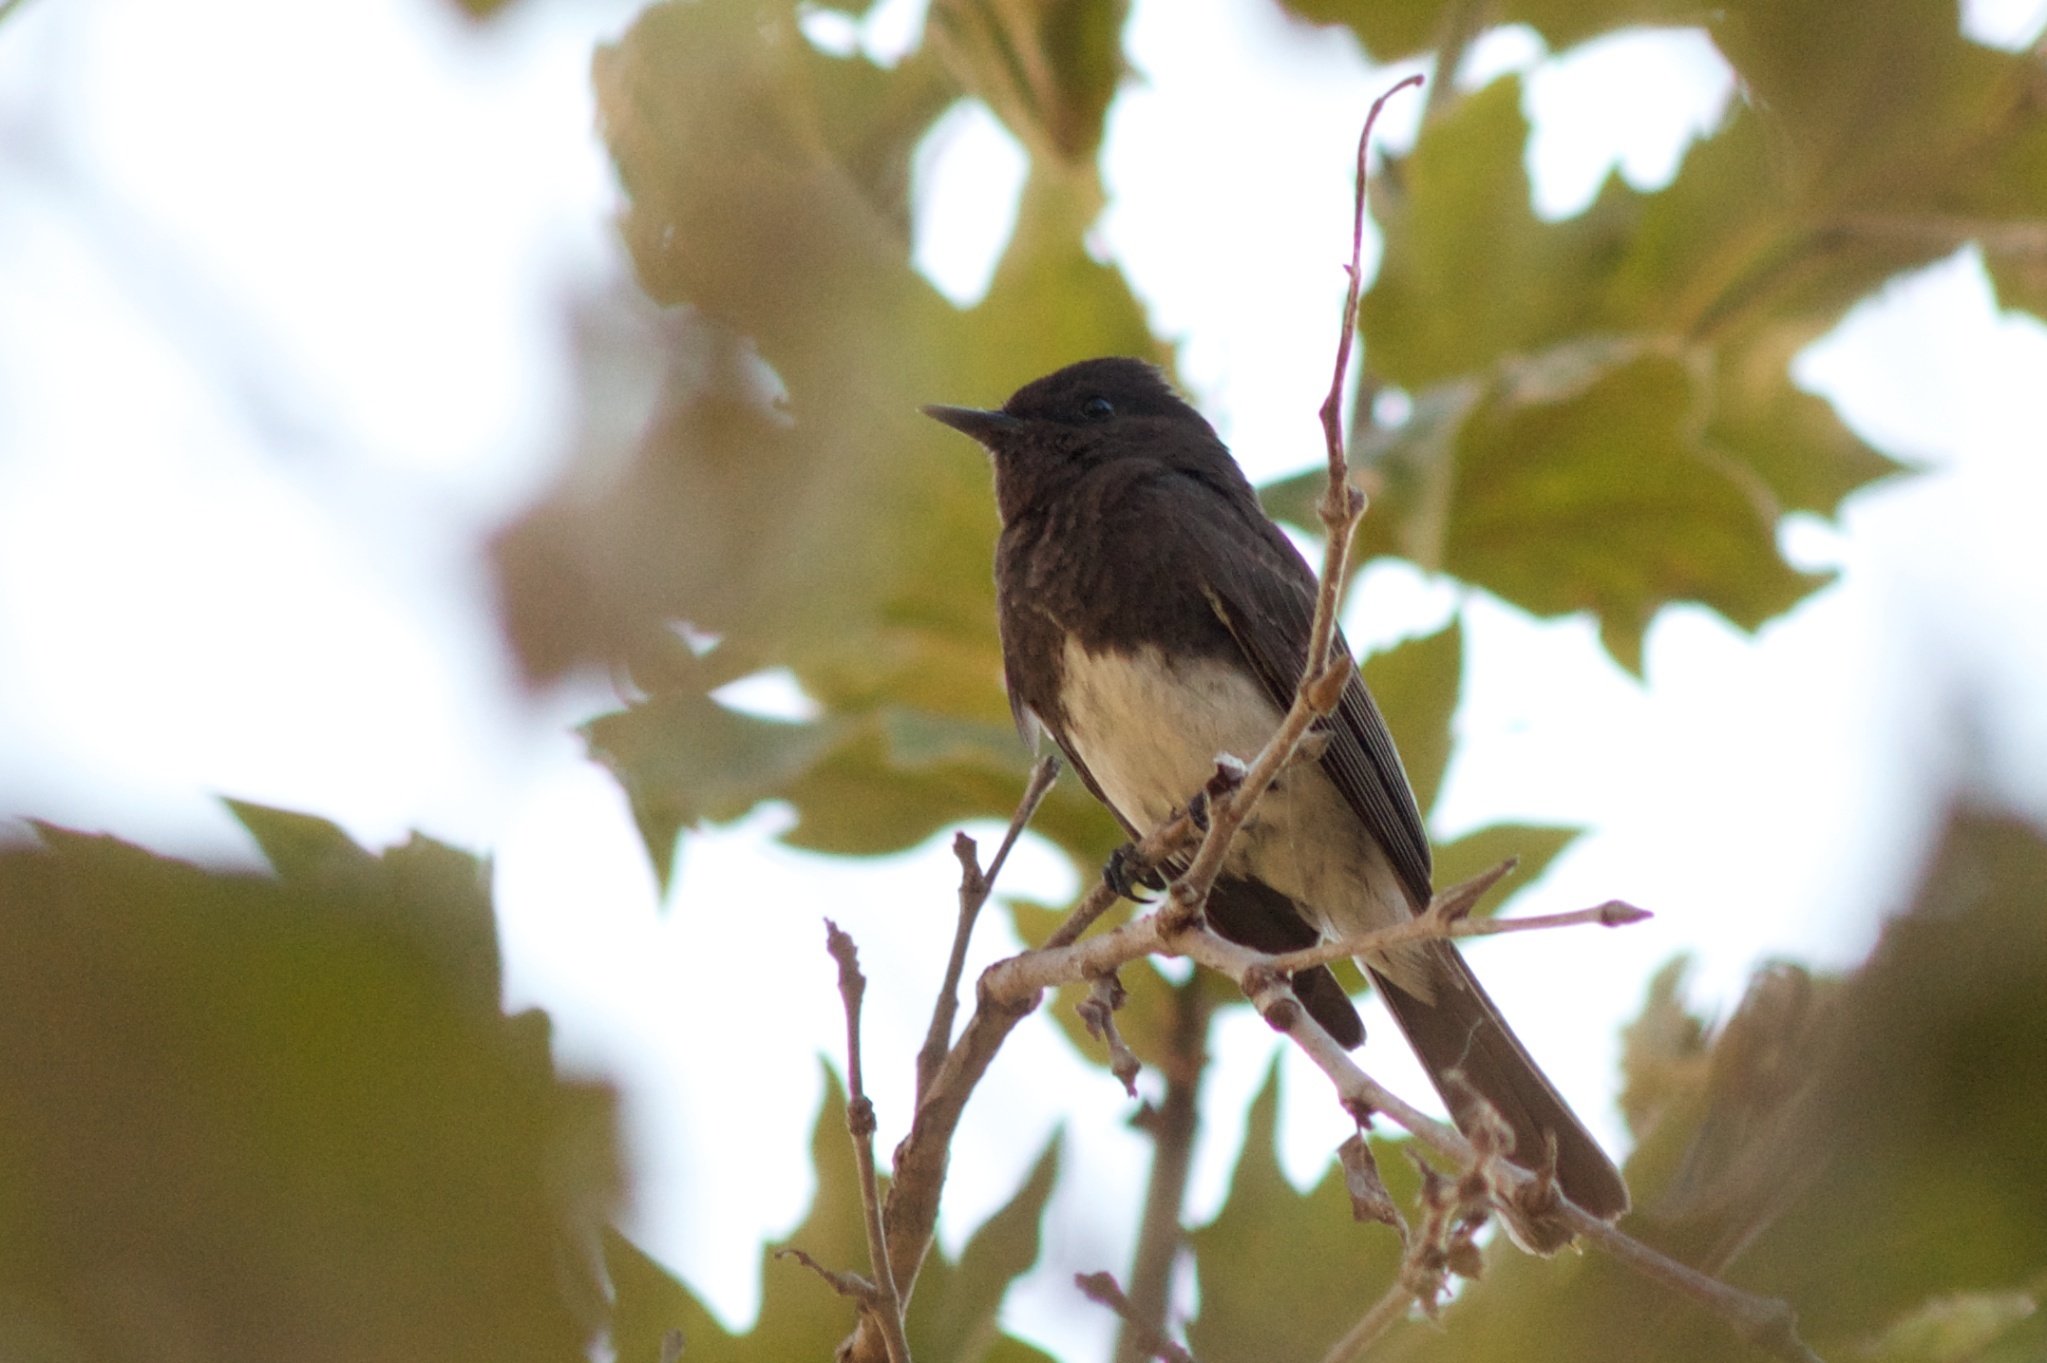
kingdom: Animalia
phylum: Chordata
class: Aves
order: Passeriformes
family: Tyrannidae
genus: Sayornis
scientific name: Sayornis nigricans
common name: Black phoebe
